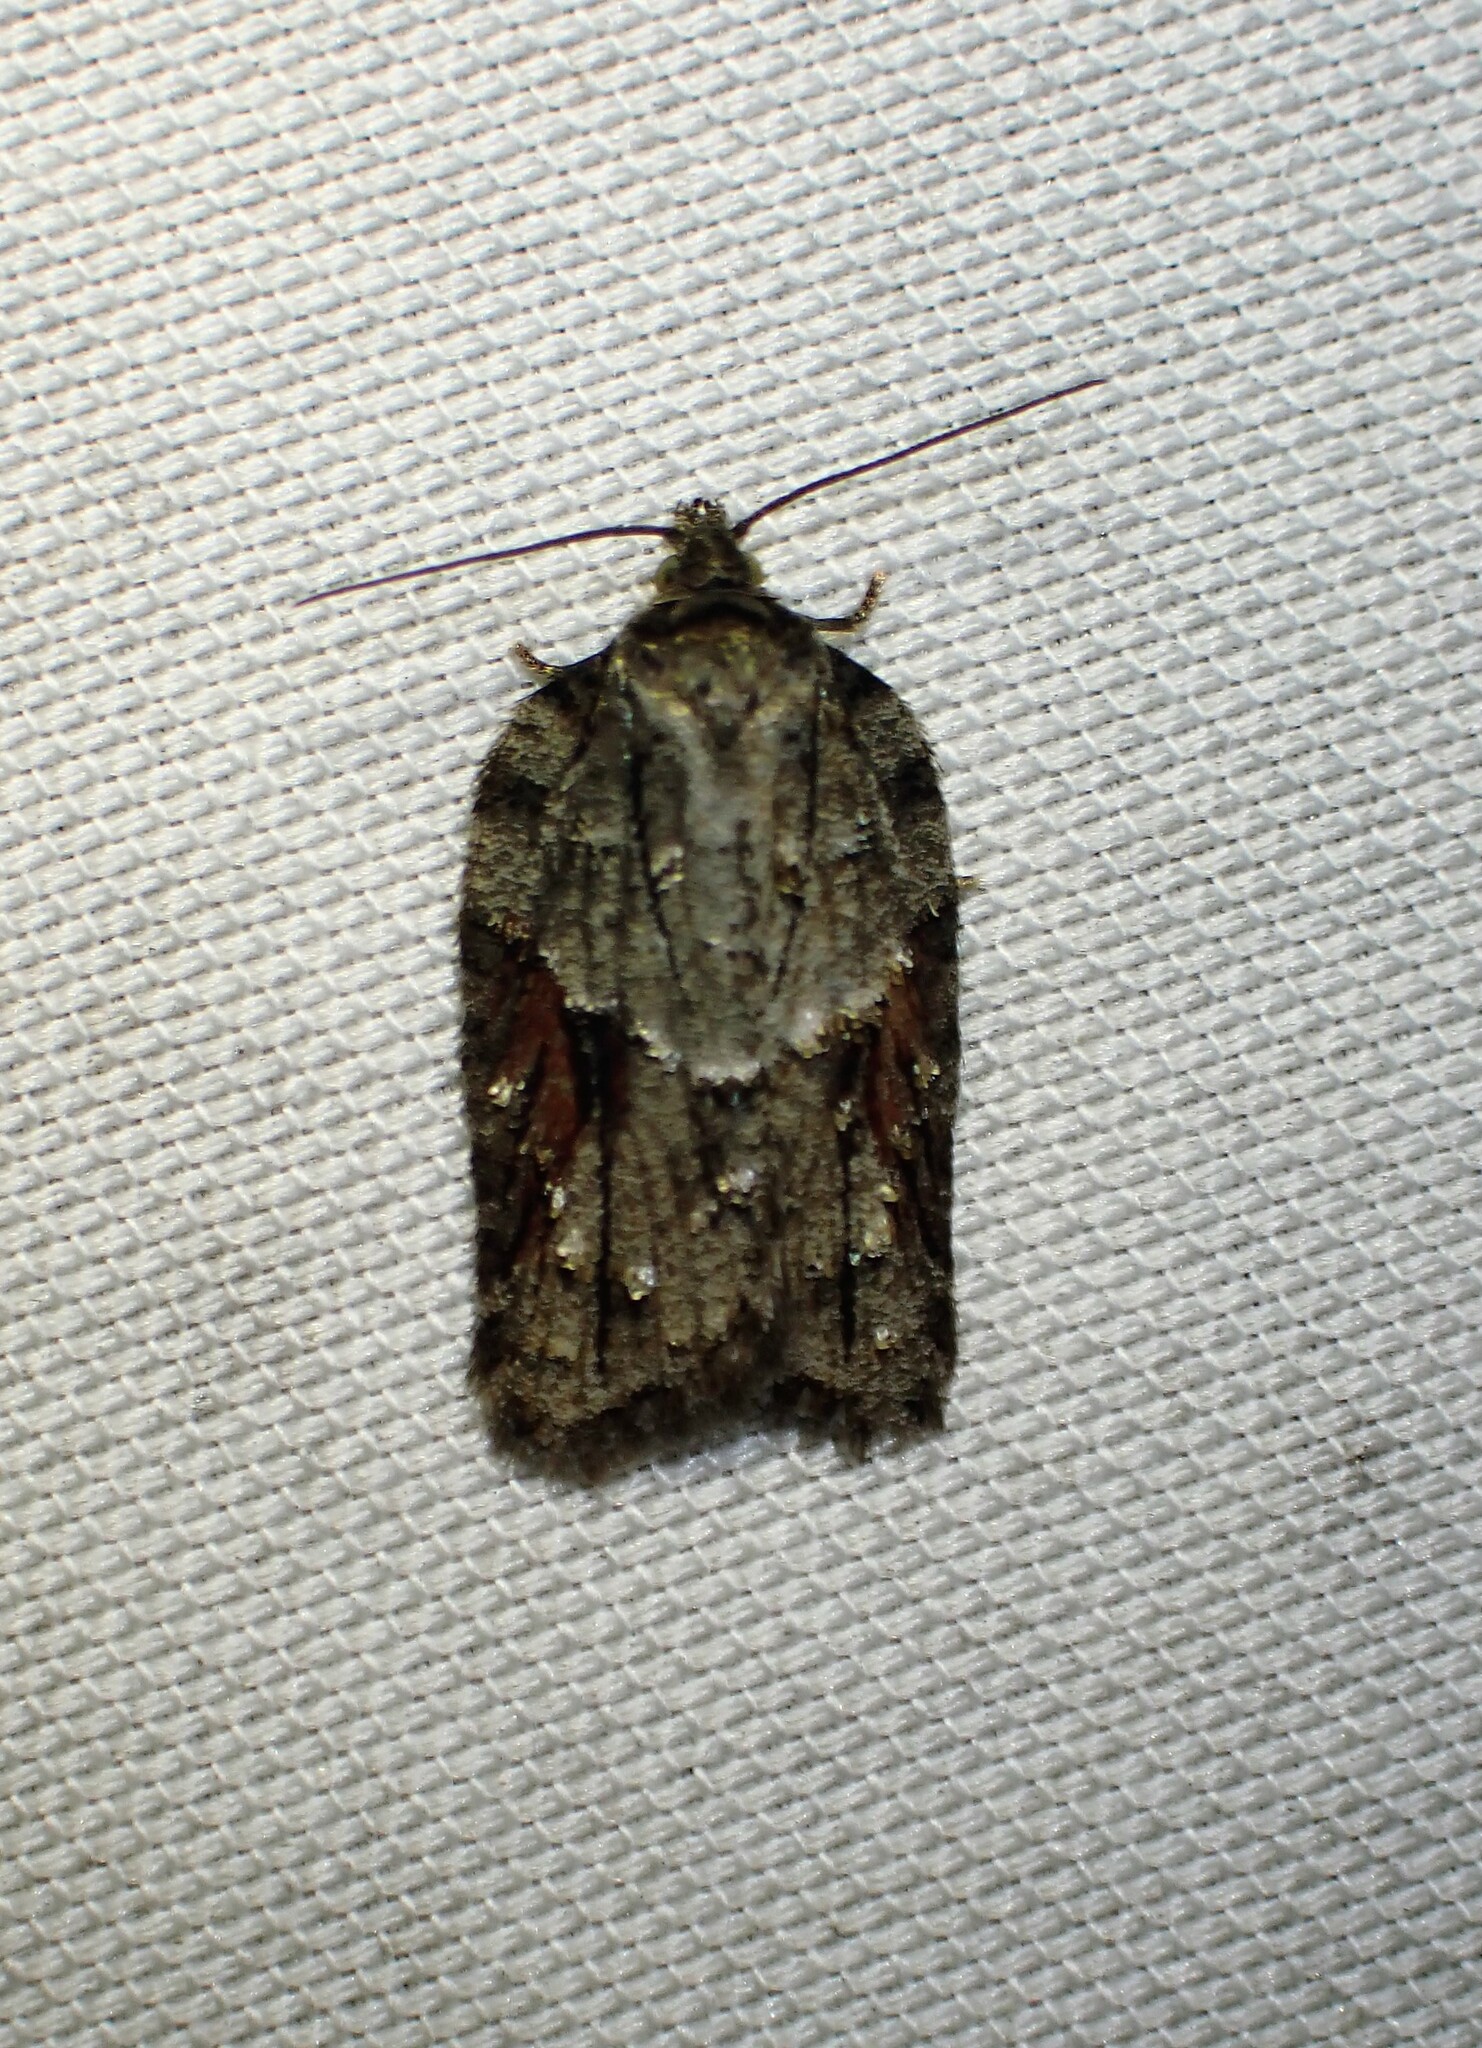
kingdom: Animalia
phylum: Arthropoda
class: Insecta
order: Lepidoptera
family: Tortricidae
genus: Acleris
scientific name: Acleris ptychogrammos
